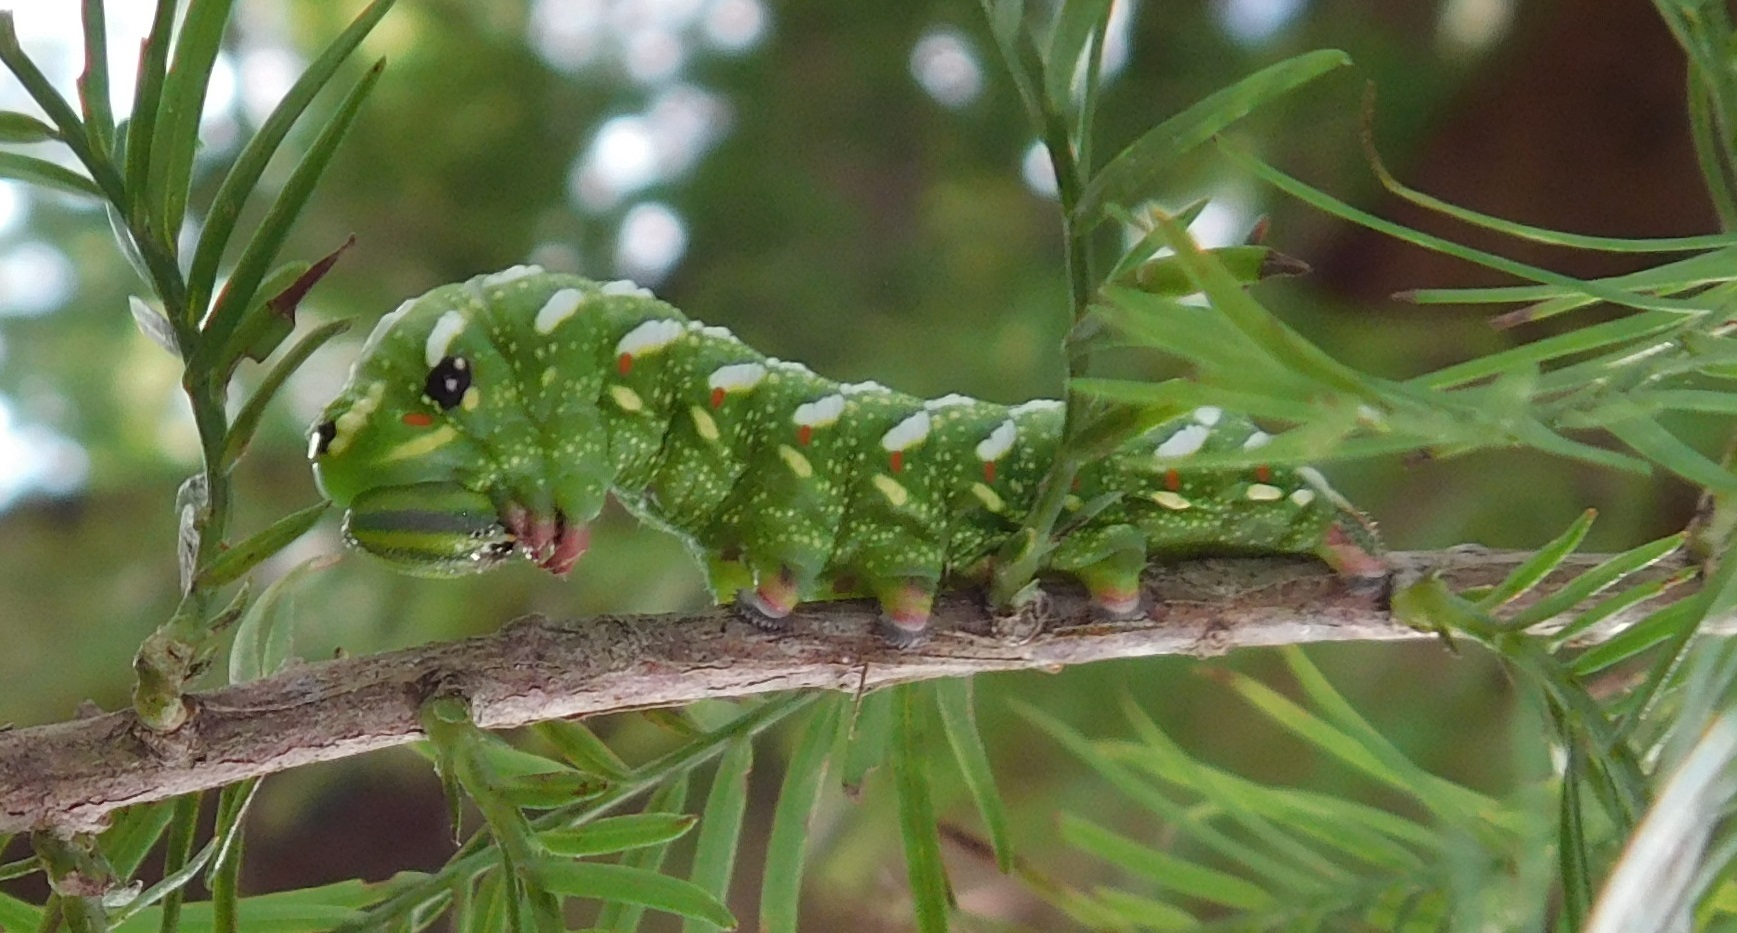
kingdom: Animalia
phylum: Arthropoda
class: Insecta
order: Lepidoptera
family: Sphingidae
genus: Isoparce
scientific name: Isoparce cupressi
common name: Cypress sphinx
